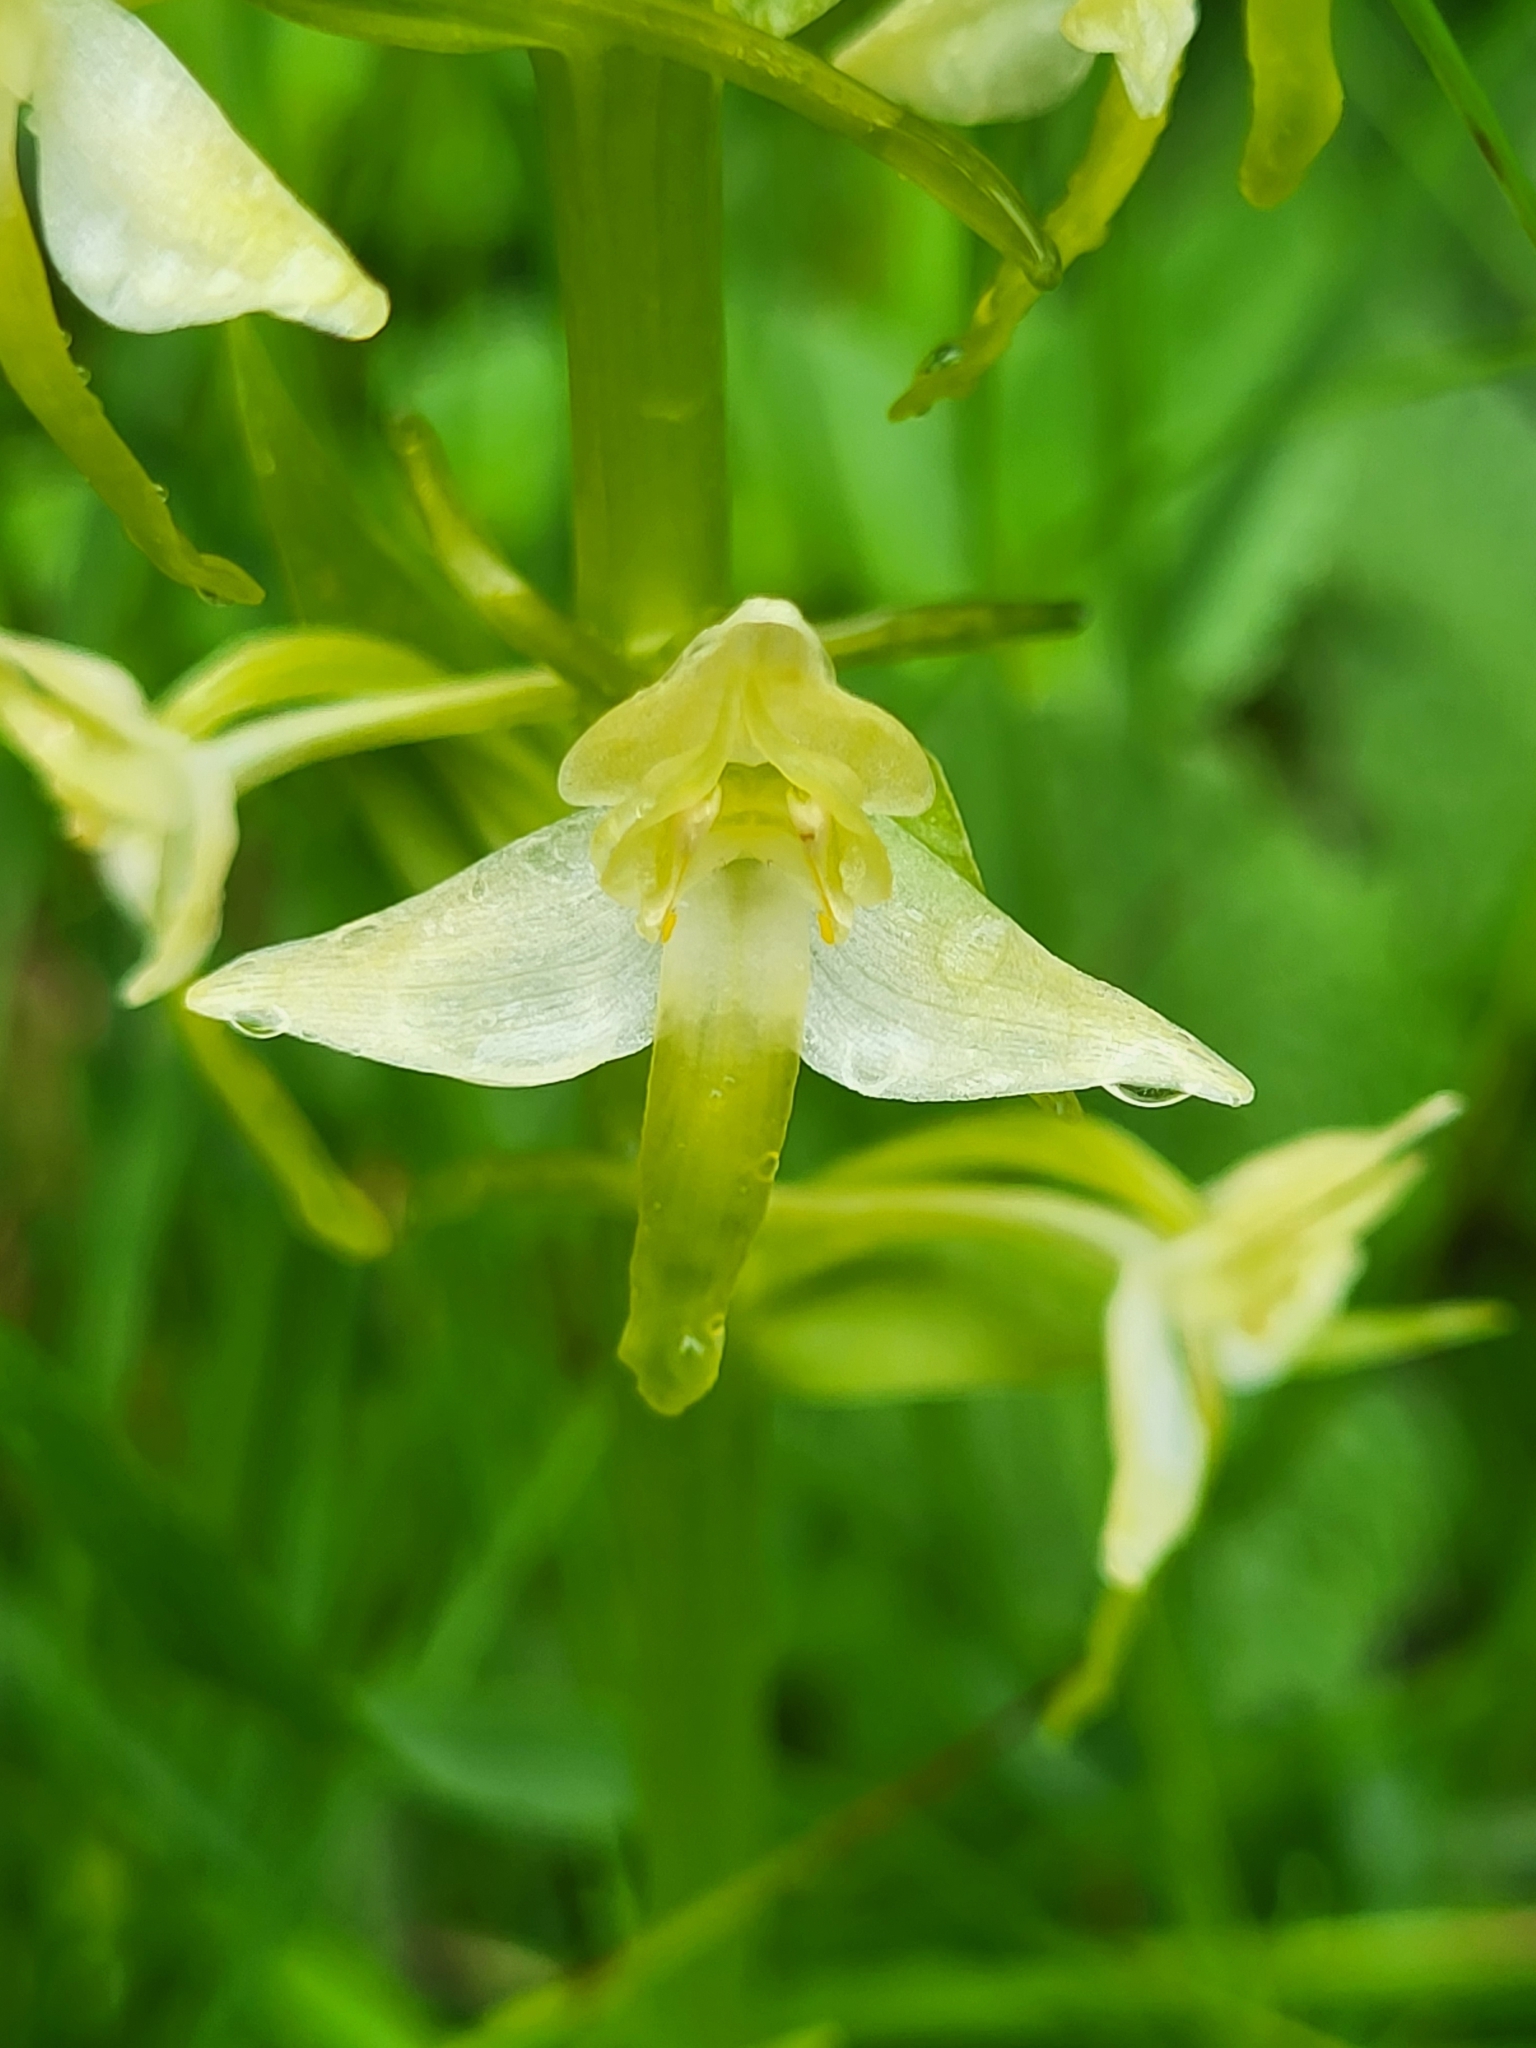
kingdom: Plantae
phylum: Tracheophyta
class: Liliopsida
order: Asparagales
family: Orchidaceae
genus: Platanthera
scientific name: Platanthera chlorantha
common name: Greater butterfly-orchid
